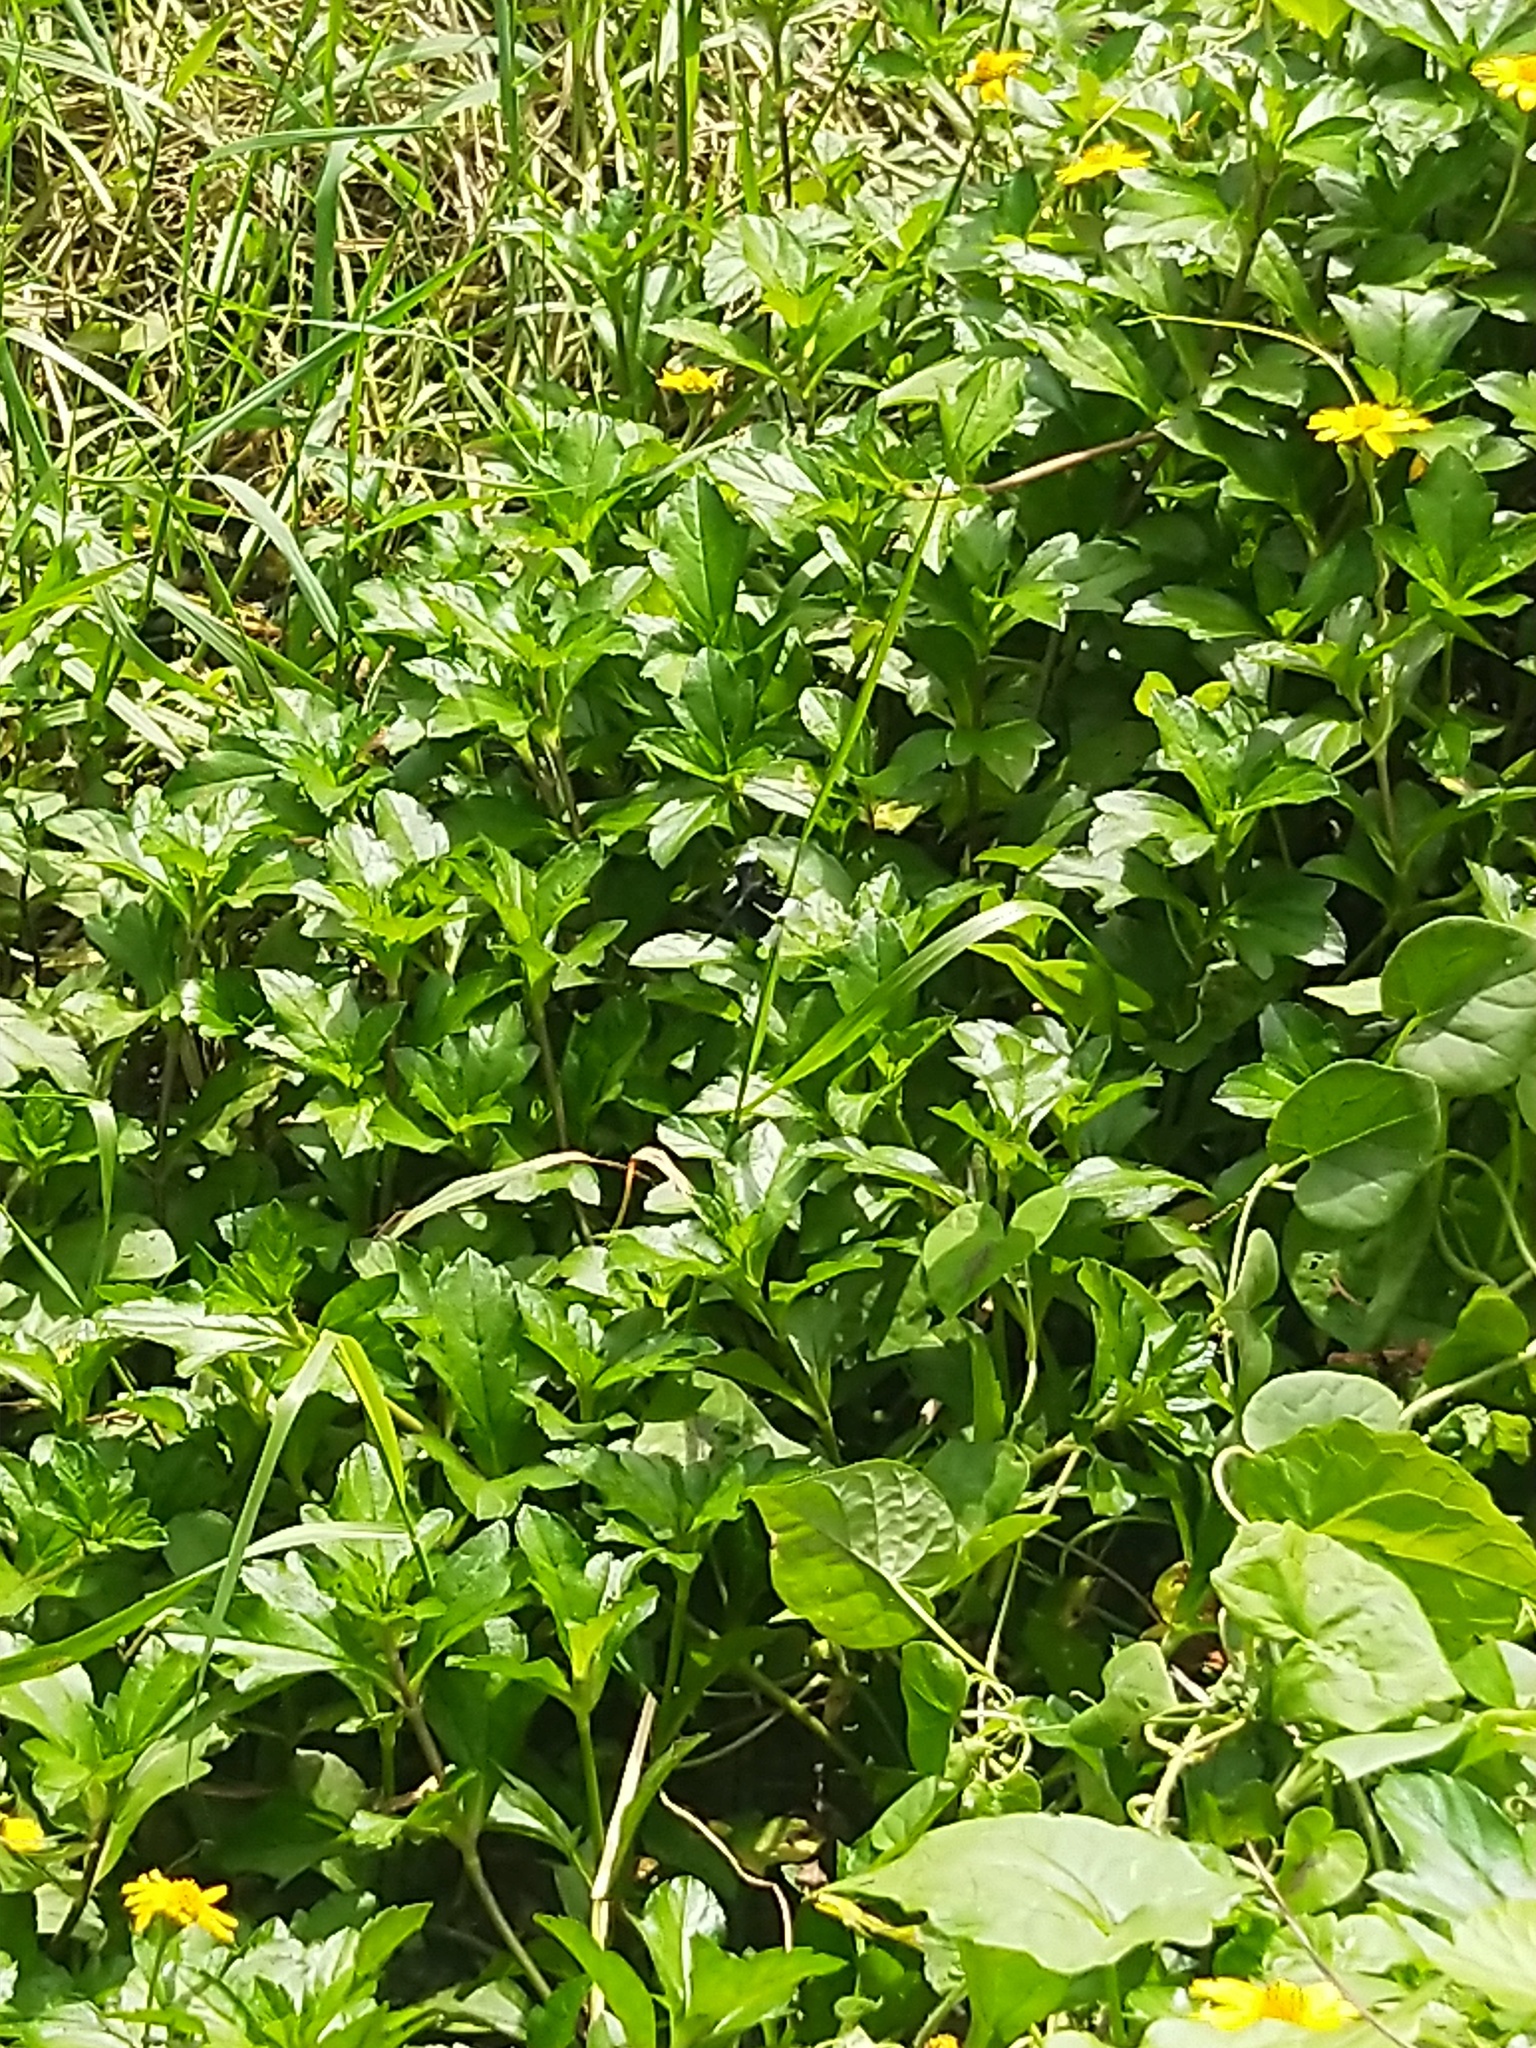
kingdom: Animalia
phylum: Arthropoda
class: Insecta
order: Odonata
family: Libellulidae
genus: Neurothemis
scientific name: Neurothemis tullia
